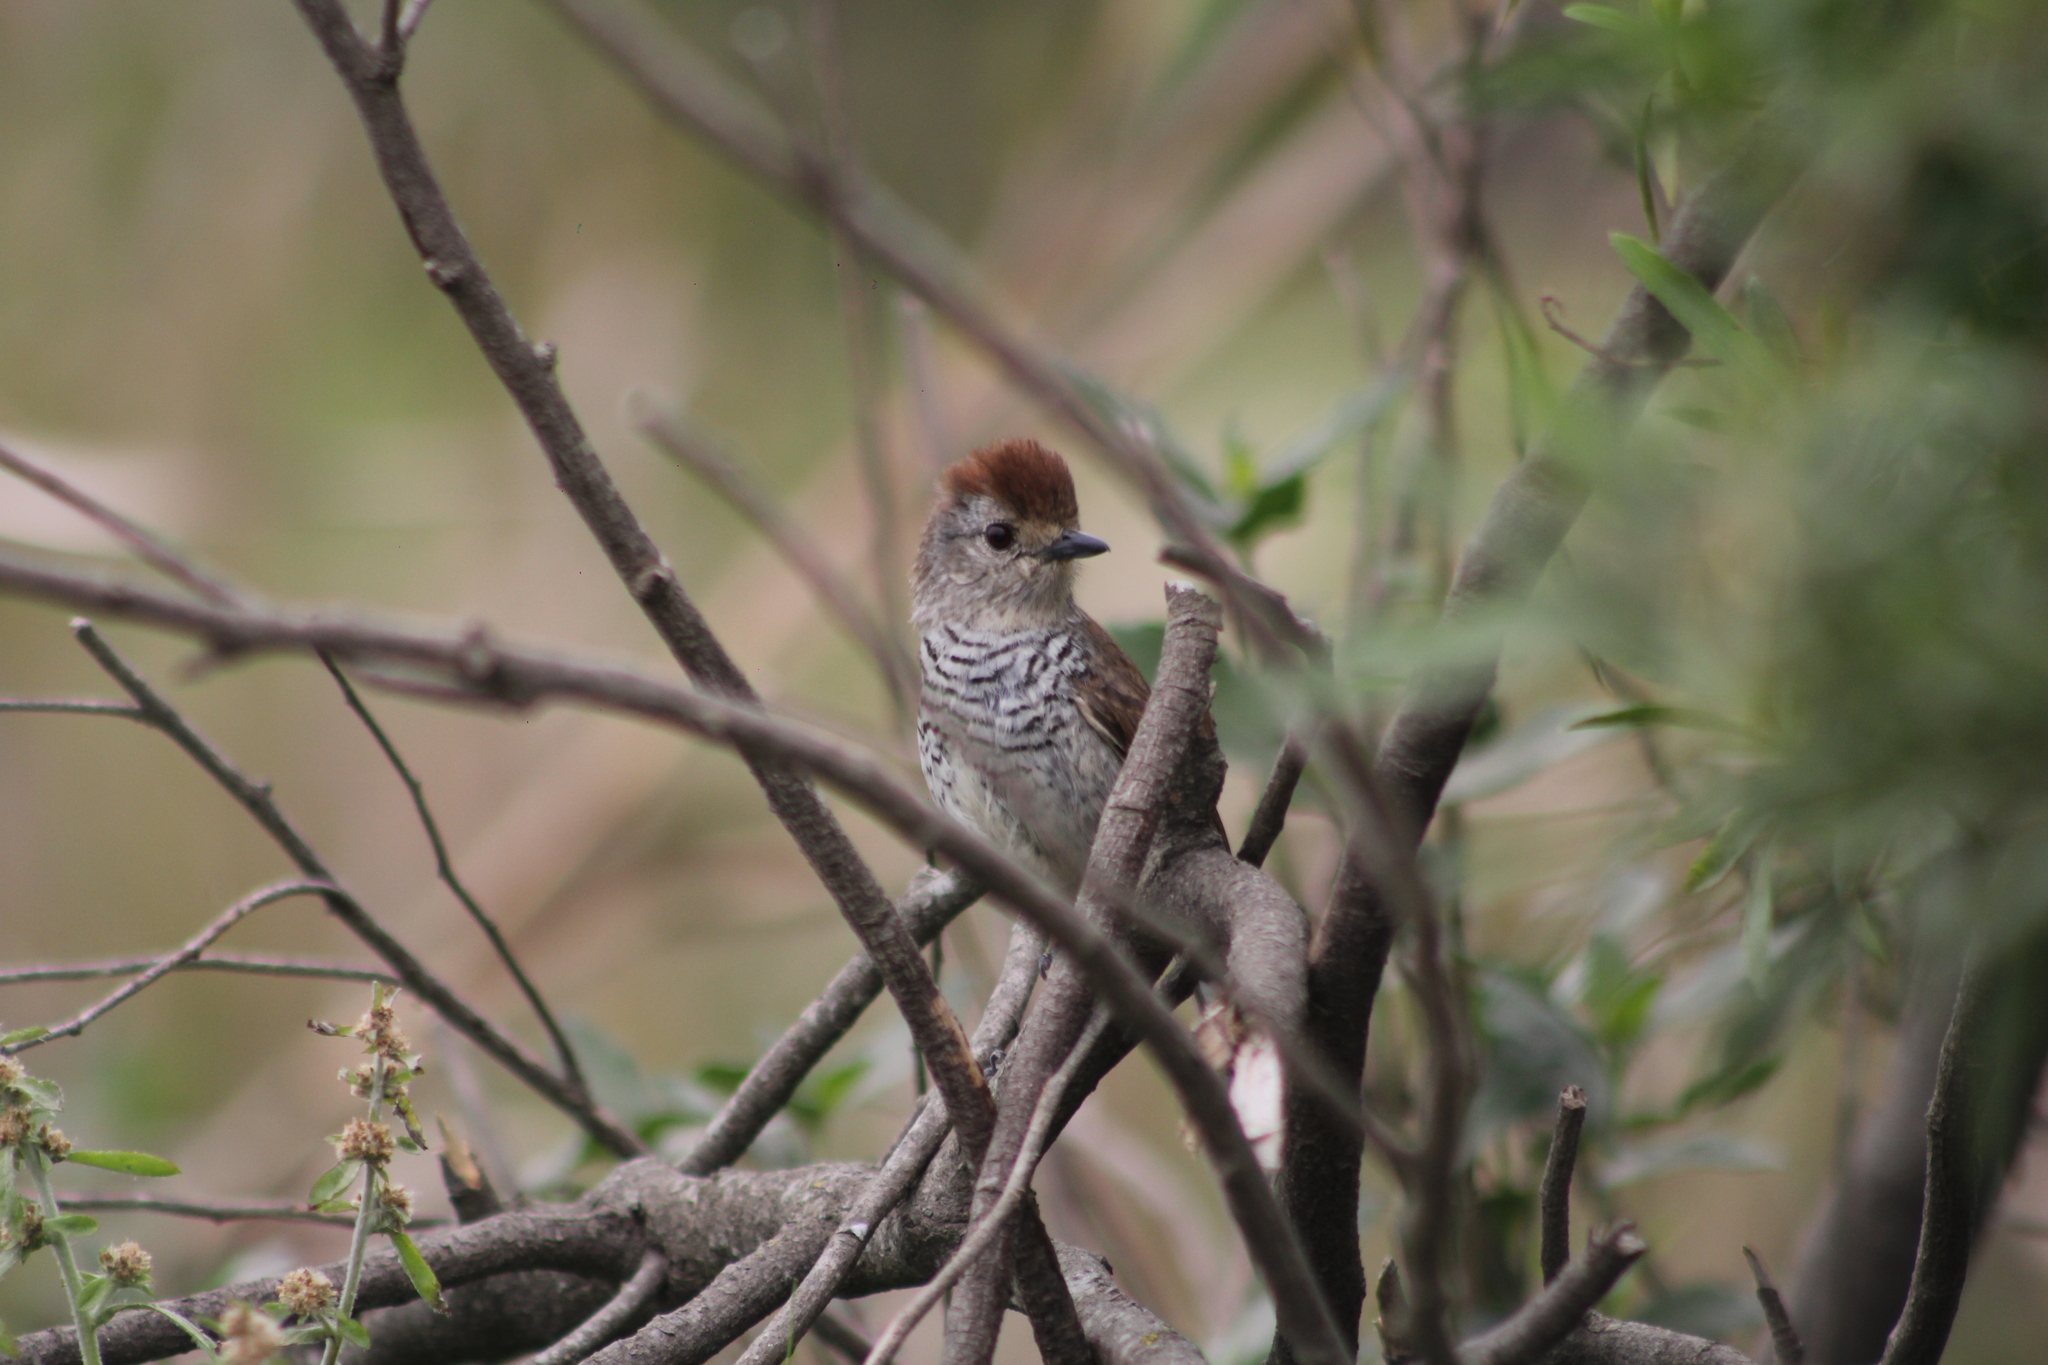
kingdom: Animalia
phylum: Chordata
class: Aves
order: Passeriformes
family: Thamnophilidae
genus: Thamnophilus
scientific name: Thamnophilus ruficapillus
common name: Rufous-capped antshrike
